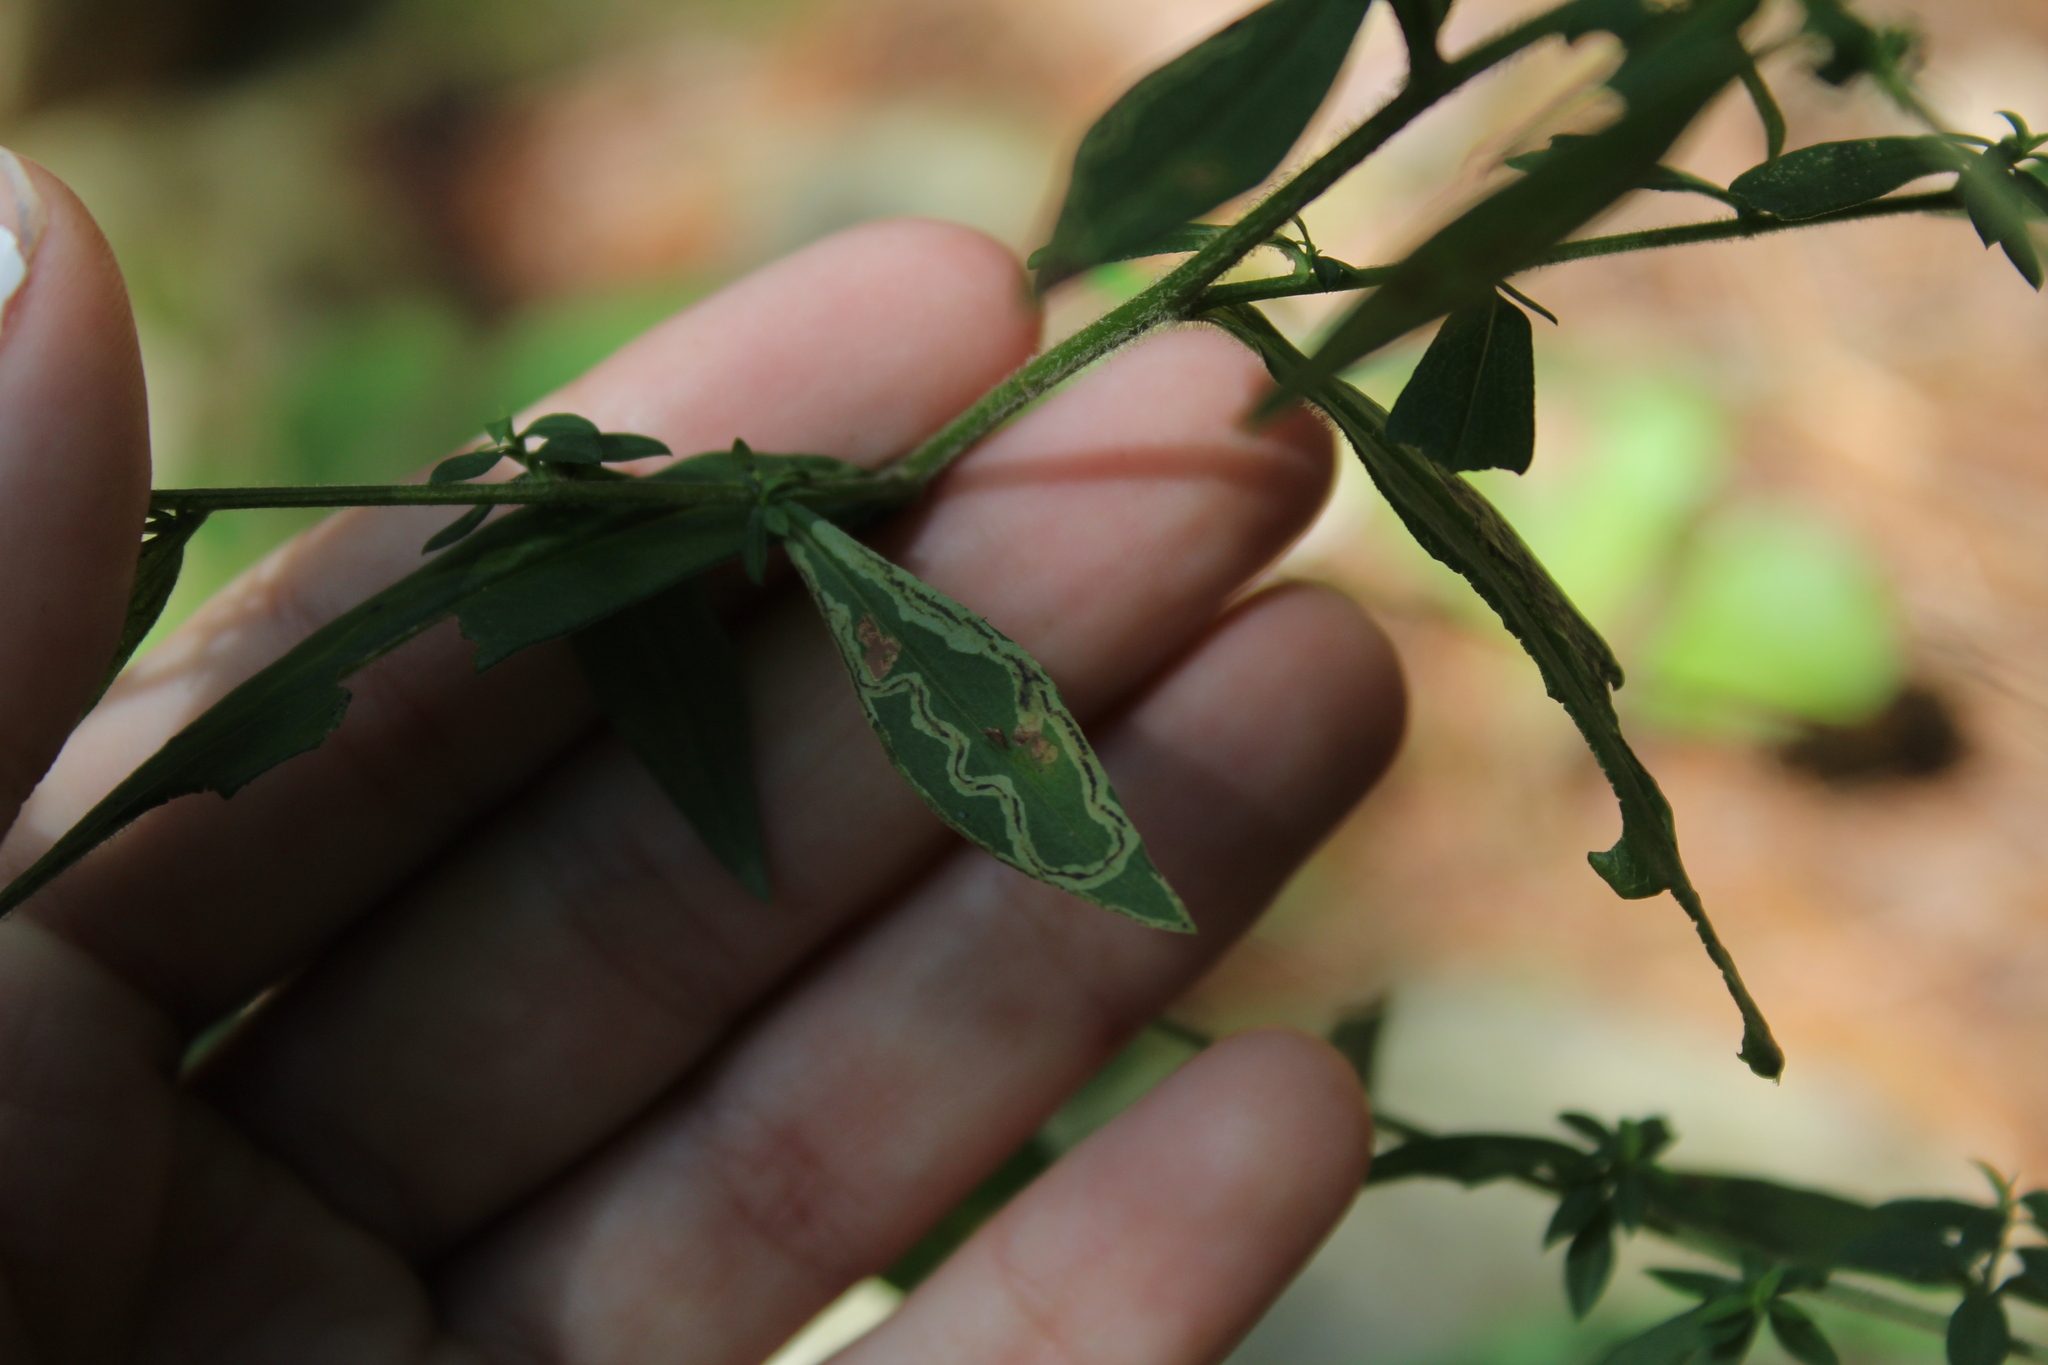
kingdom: Animalia
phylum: Arthropoda
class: Insecta
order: Diptera
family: Agromyzidae
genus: Liriomyza
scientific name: Liriomyza eupatorii
